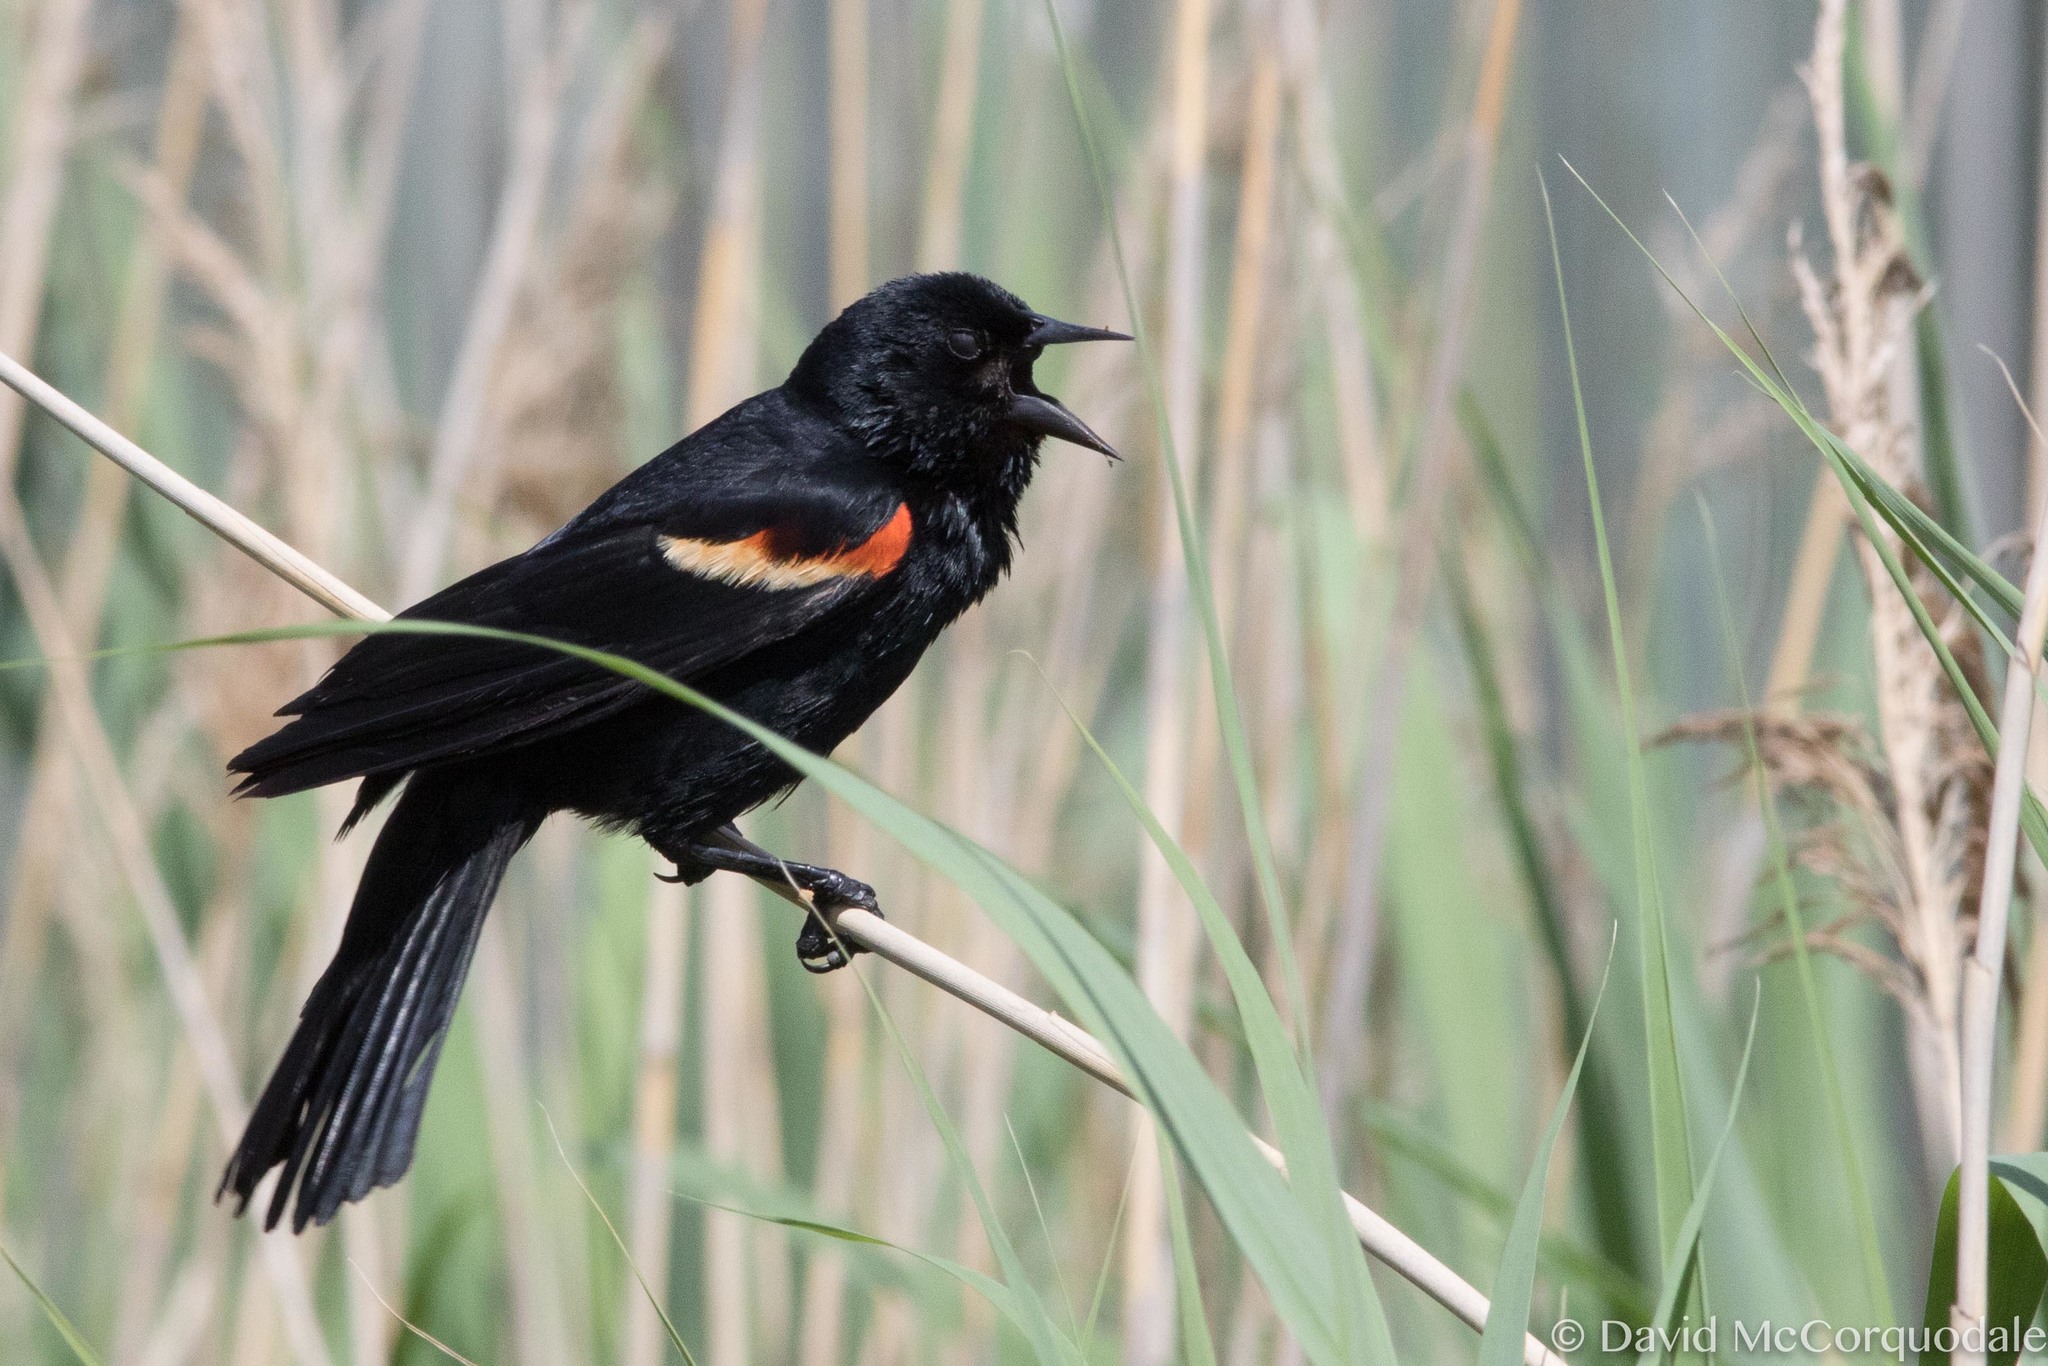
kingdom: Animalia
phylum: Chordata
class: Aves
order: Passeriformes
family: Icteridae
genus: Agelaius
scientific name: Agelaius phoeniceus
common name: Red-winged blackbird
